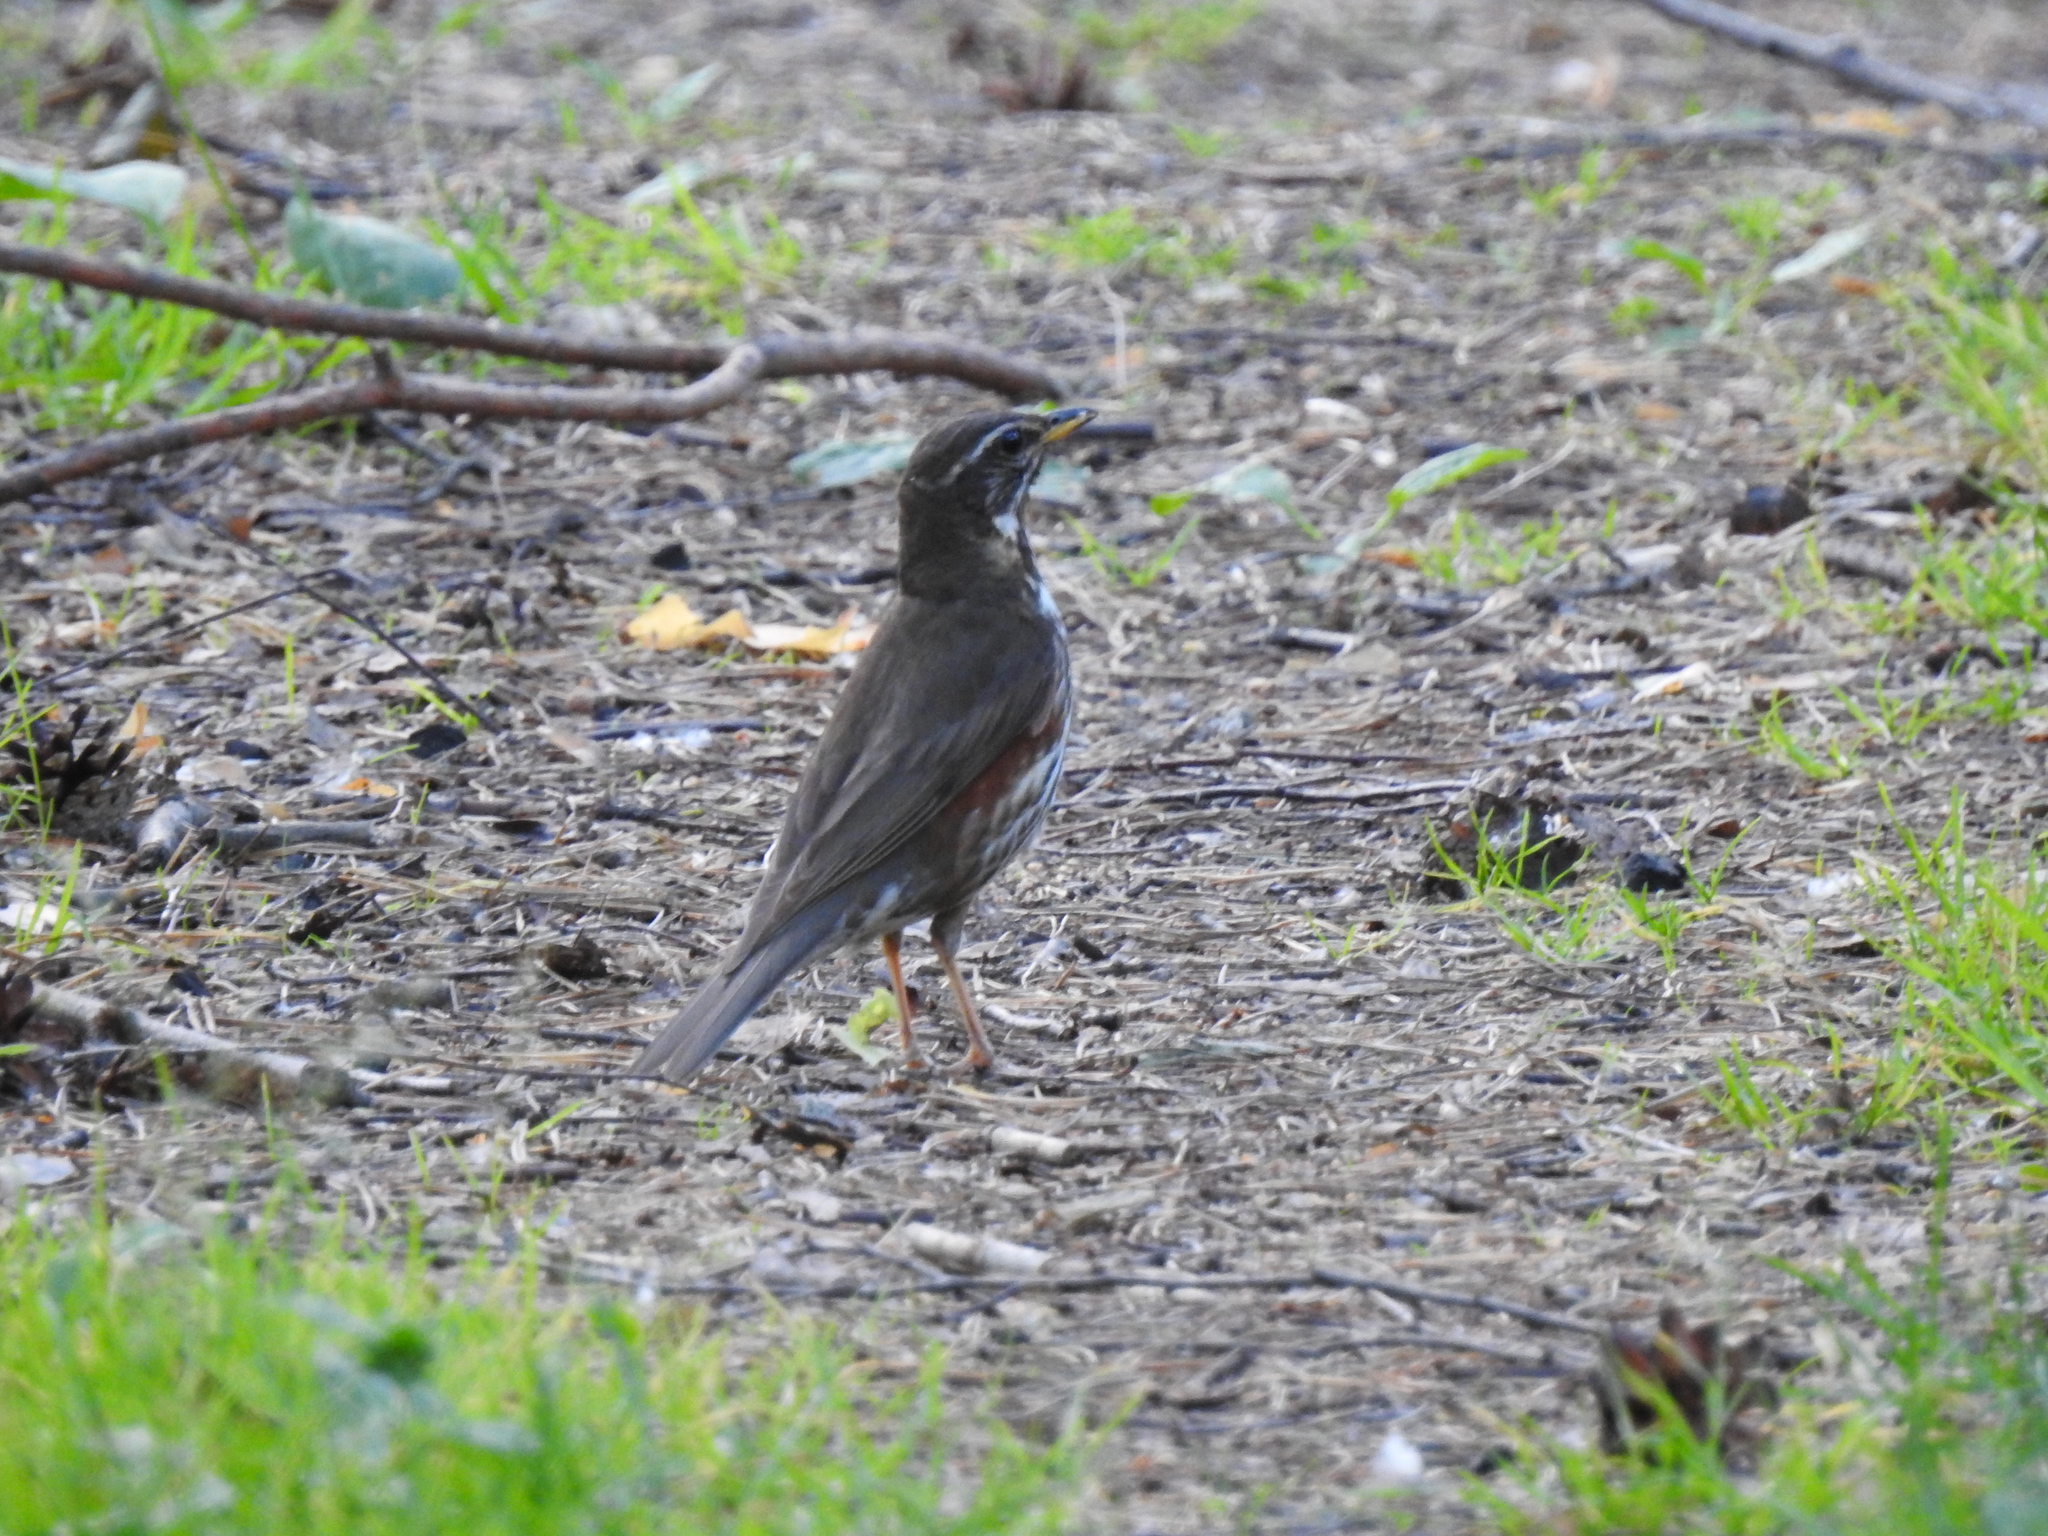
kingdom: Animalia
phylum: Chordata
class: Aves
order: Passeriformes
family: Turdidae
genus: Turdus
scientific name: Turdus iliacus
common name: Redwing
